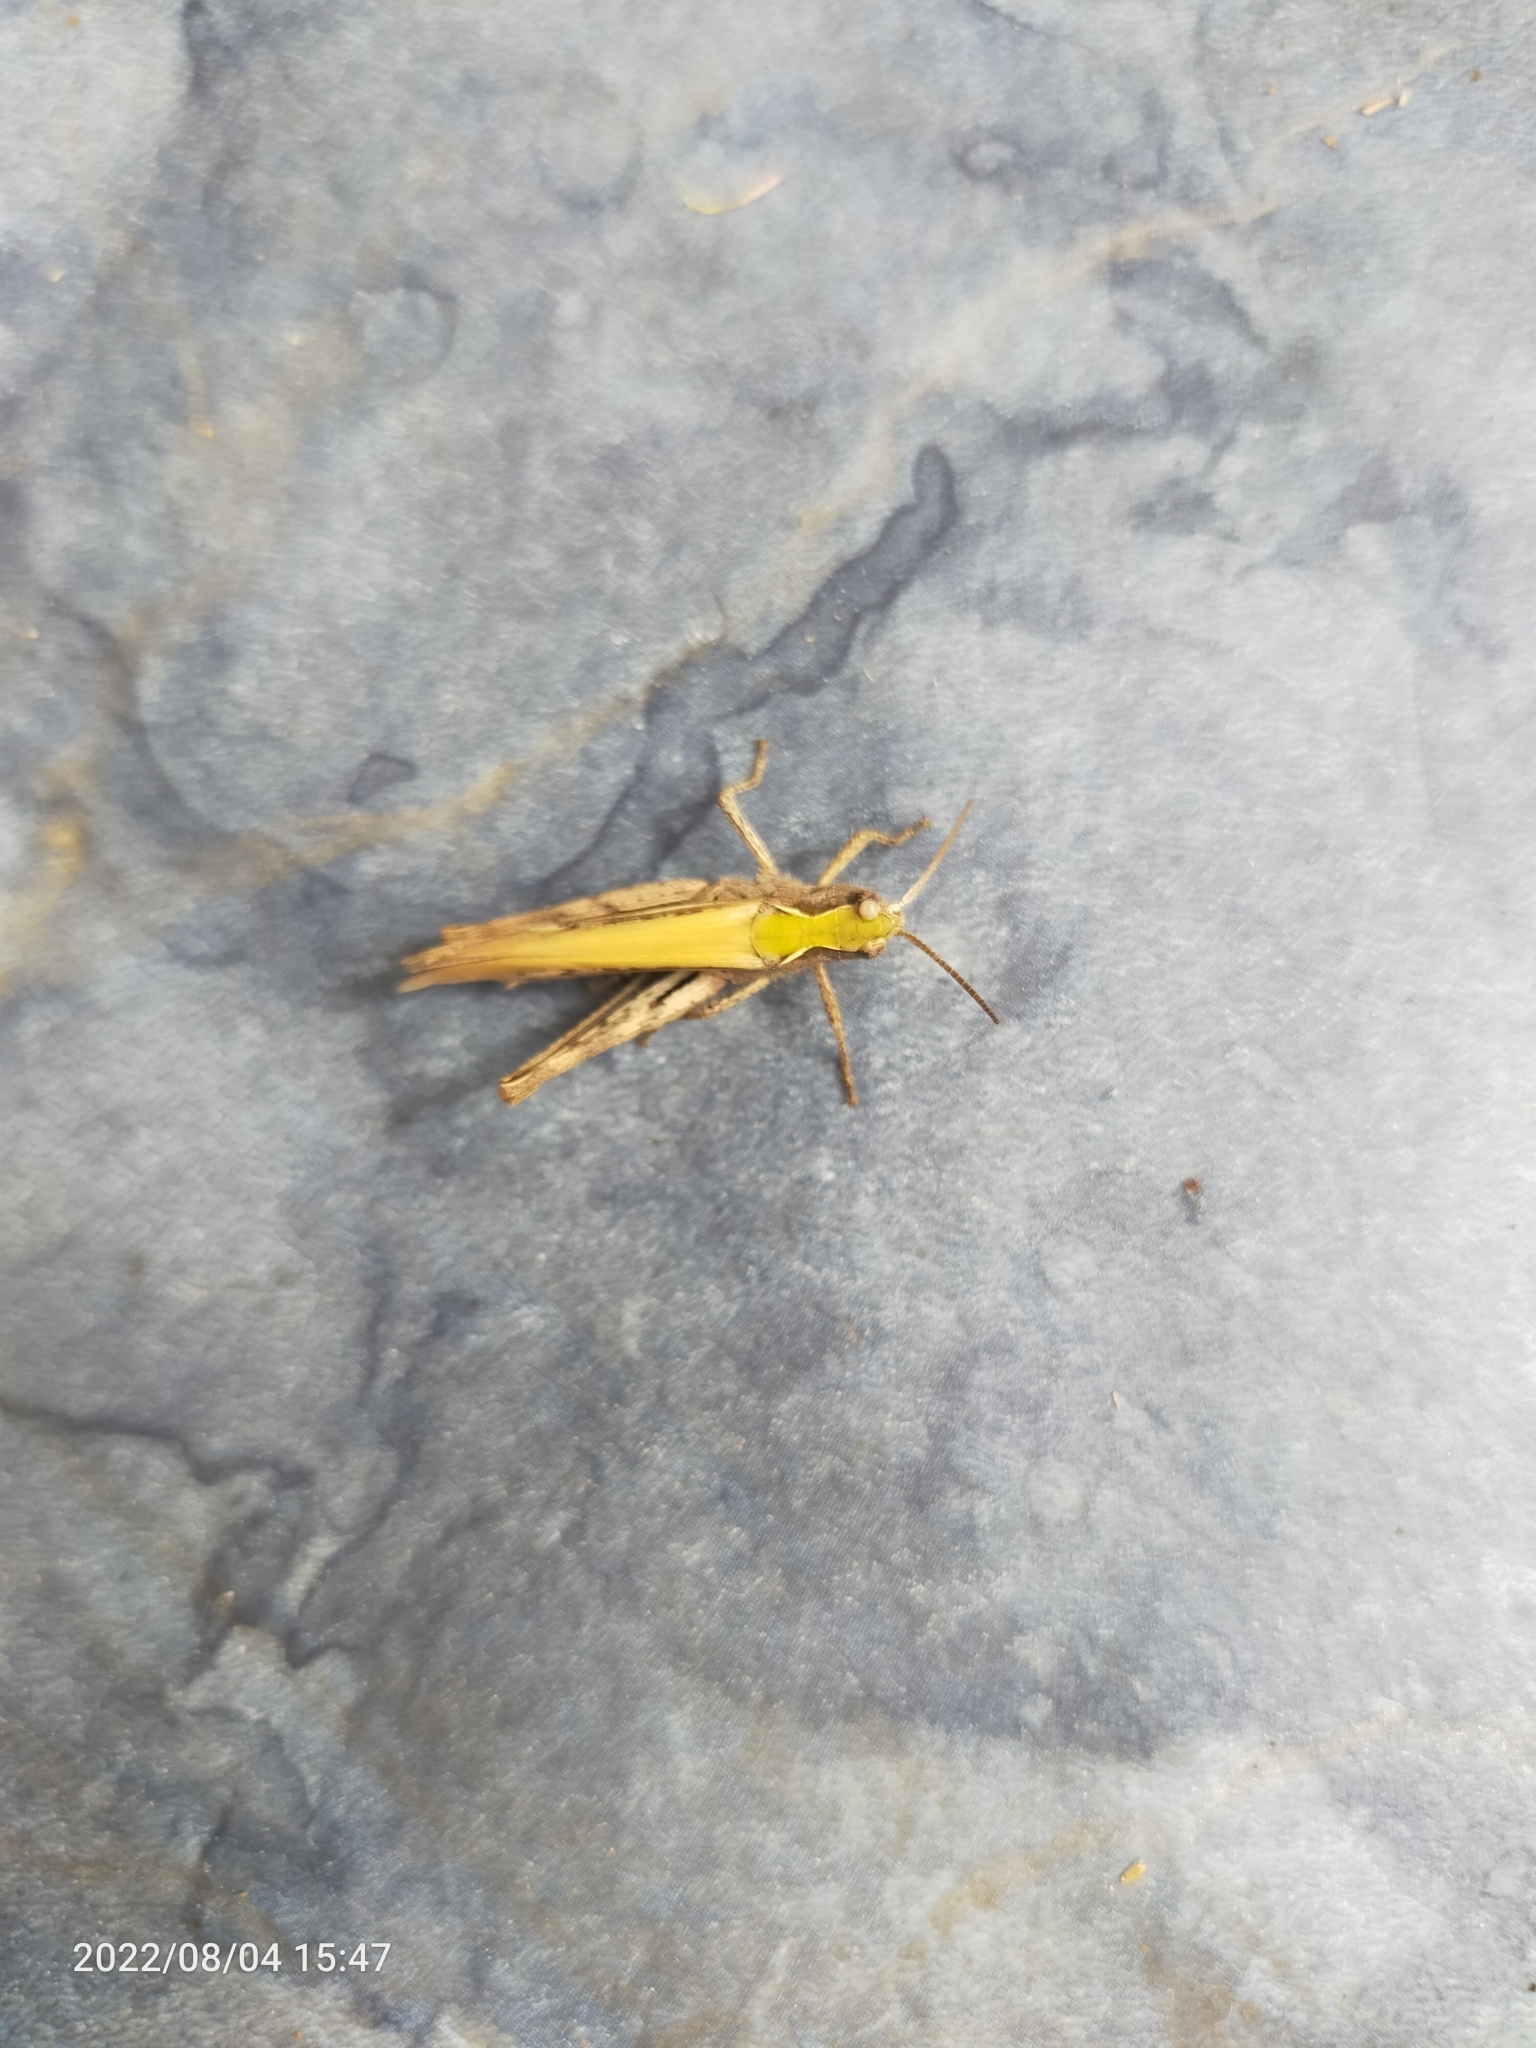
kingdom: Animalia
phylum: Arthropoda
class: Insecta
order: Orthoptera
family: Acrididae
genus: Chorthippus
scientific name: Chorthippus brunneus
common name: Field grasshopper
